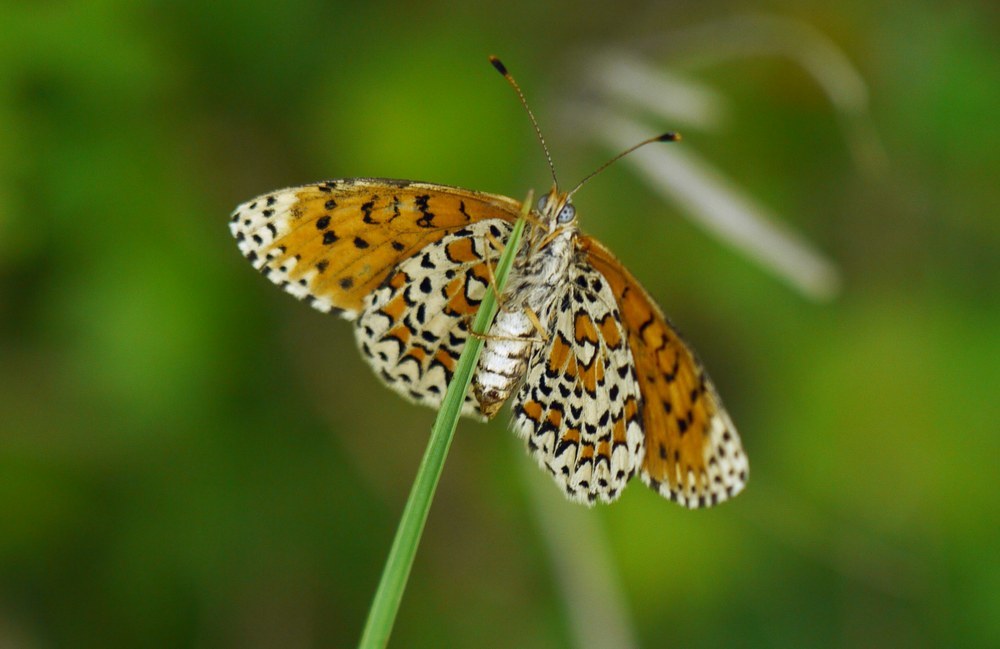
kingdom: Animalia
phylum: Arthropoda
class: Insecta
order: Lepidoptera
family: Nymphalidae
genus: Melitaea
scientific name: Melitaea trivia
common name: Lesser spotted fritillary
